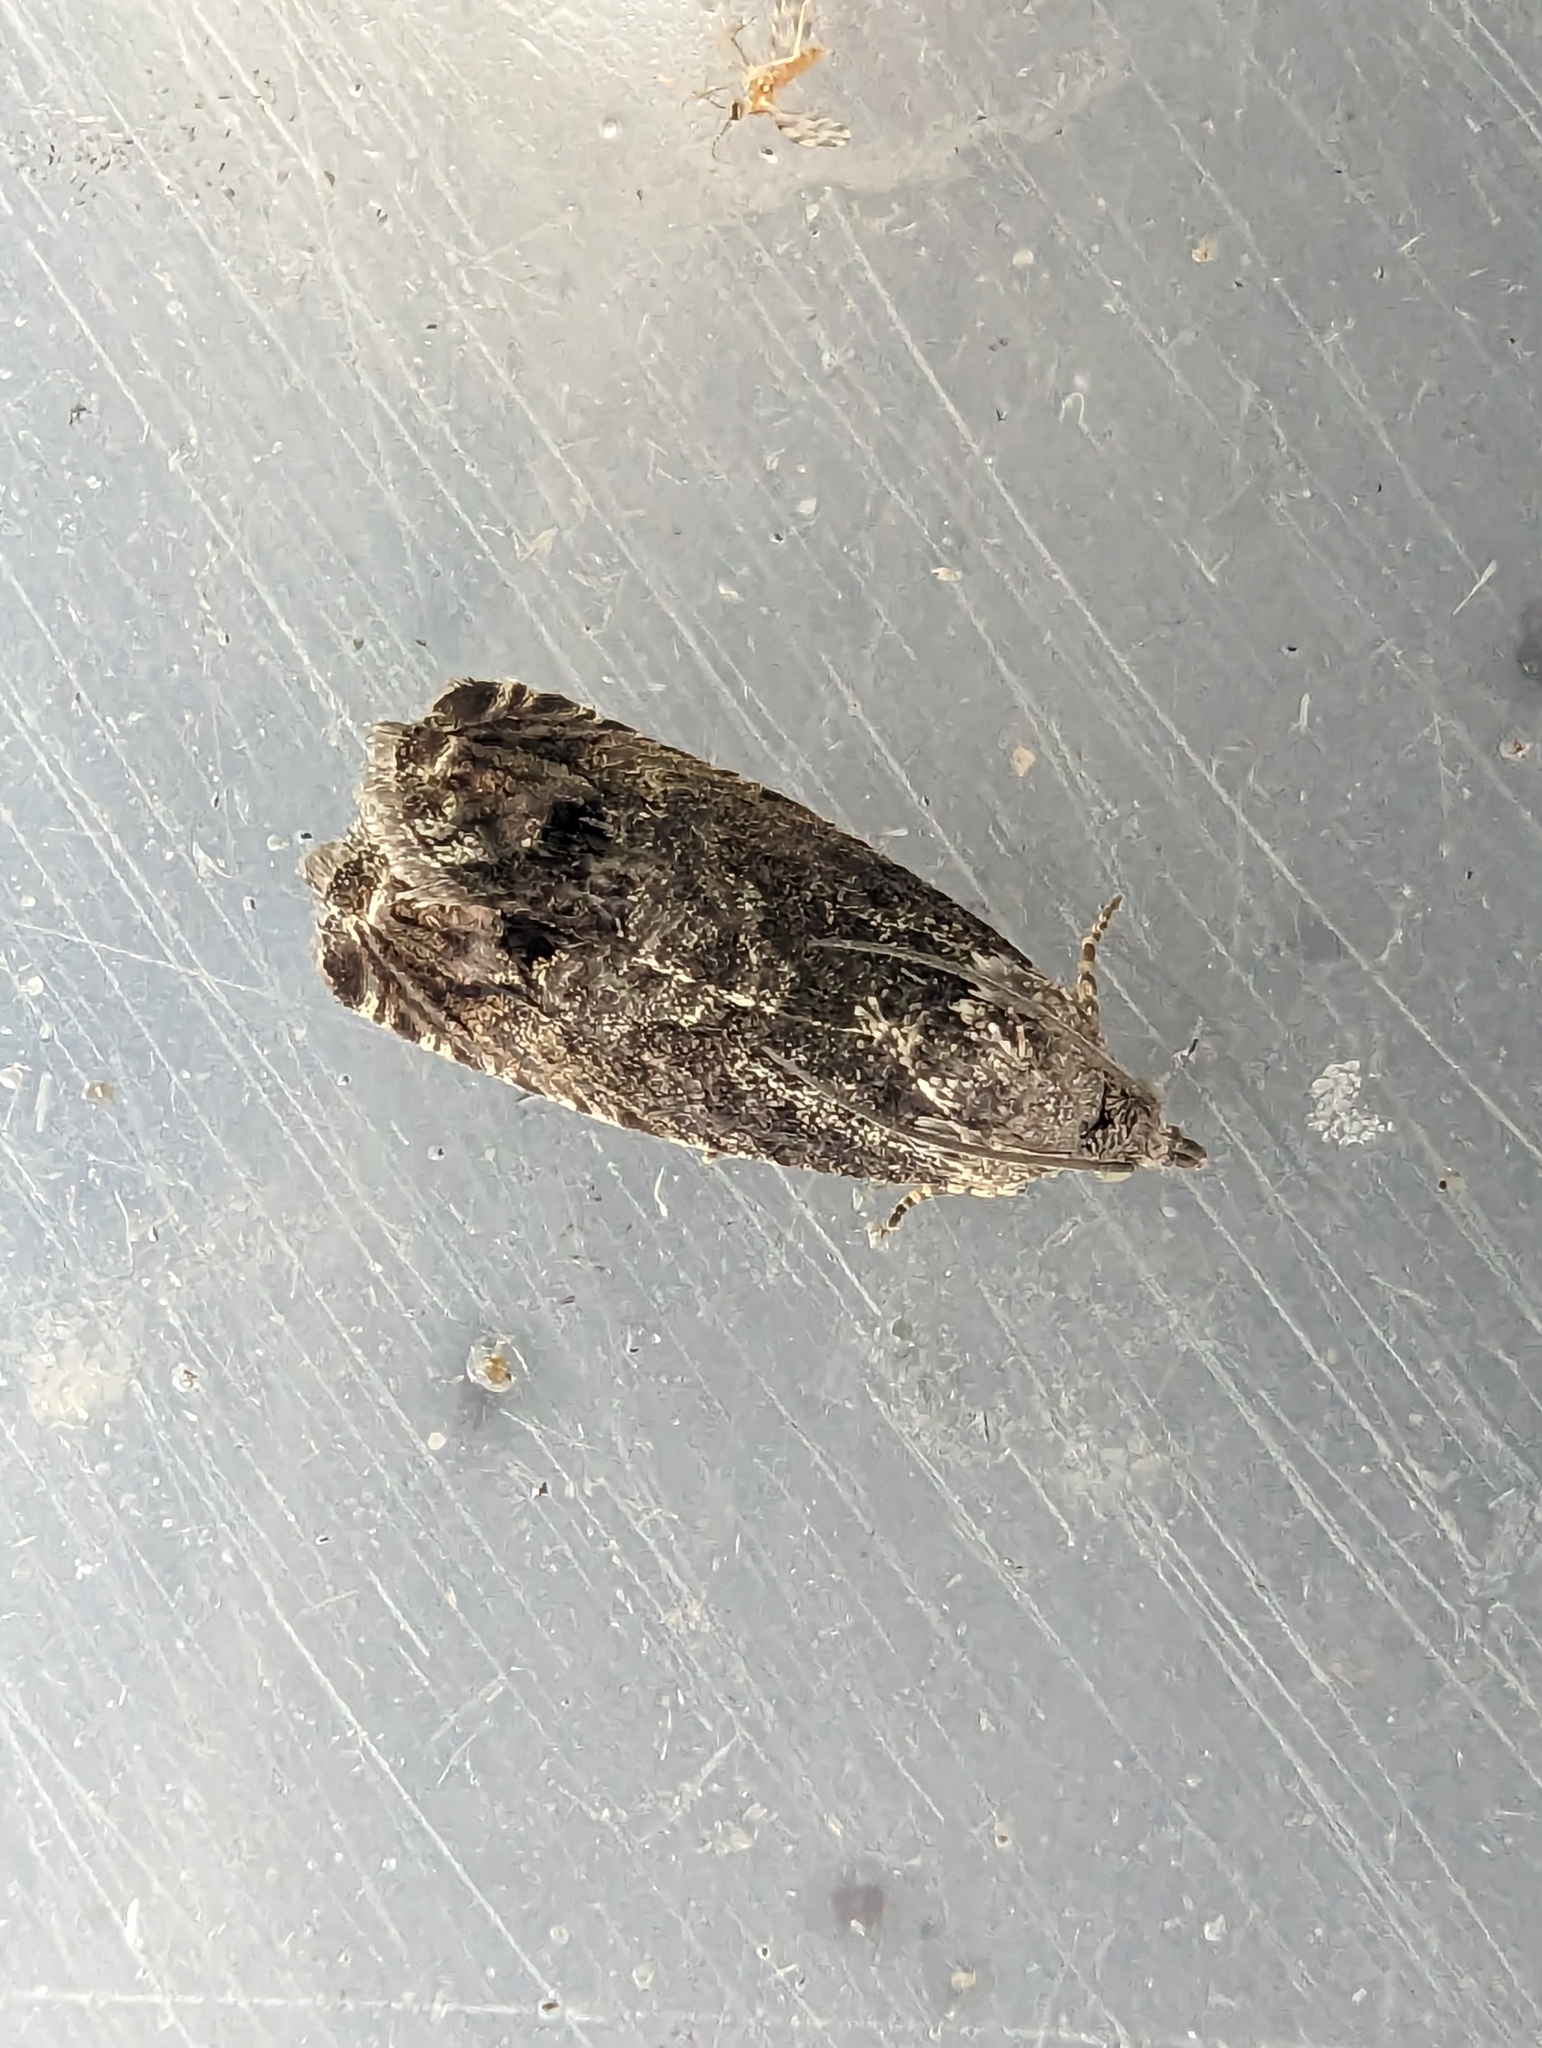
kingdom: Animalia
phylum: Arthropoda
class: Insecta
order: Lepidoptera
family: Tortricidae
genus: Cydia
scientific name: Cydia splendana
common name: De: kastanienwickler, eichenwickler es: oruga de la castaña fr: carpocapse des châtaignes it: cidia o tortrice tardiva delle castagne pt: bichado das castanhas gb: acorn moth, chestnut fruit tortrix
